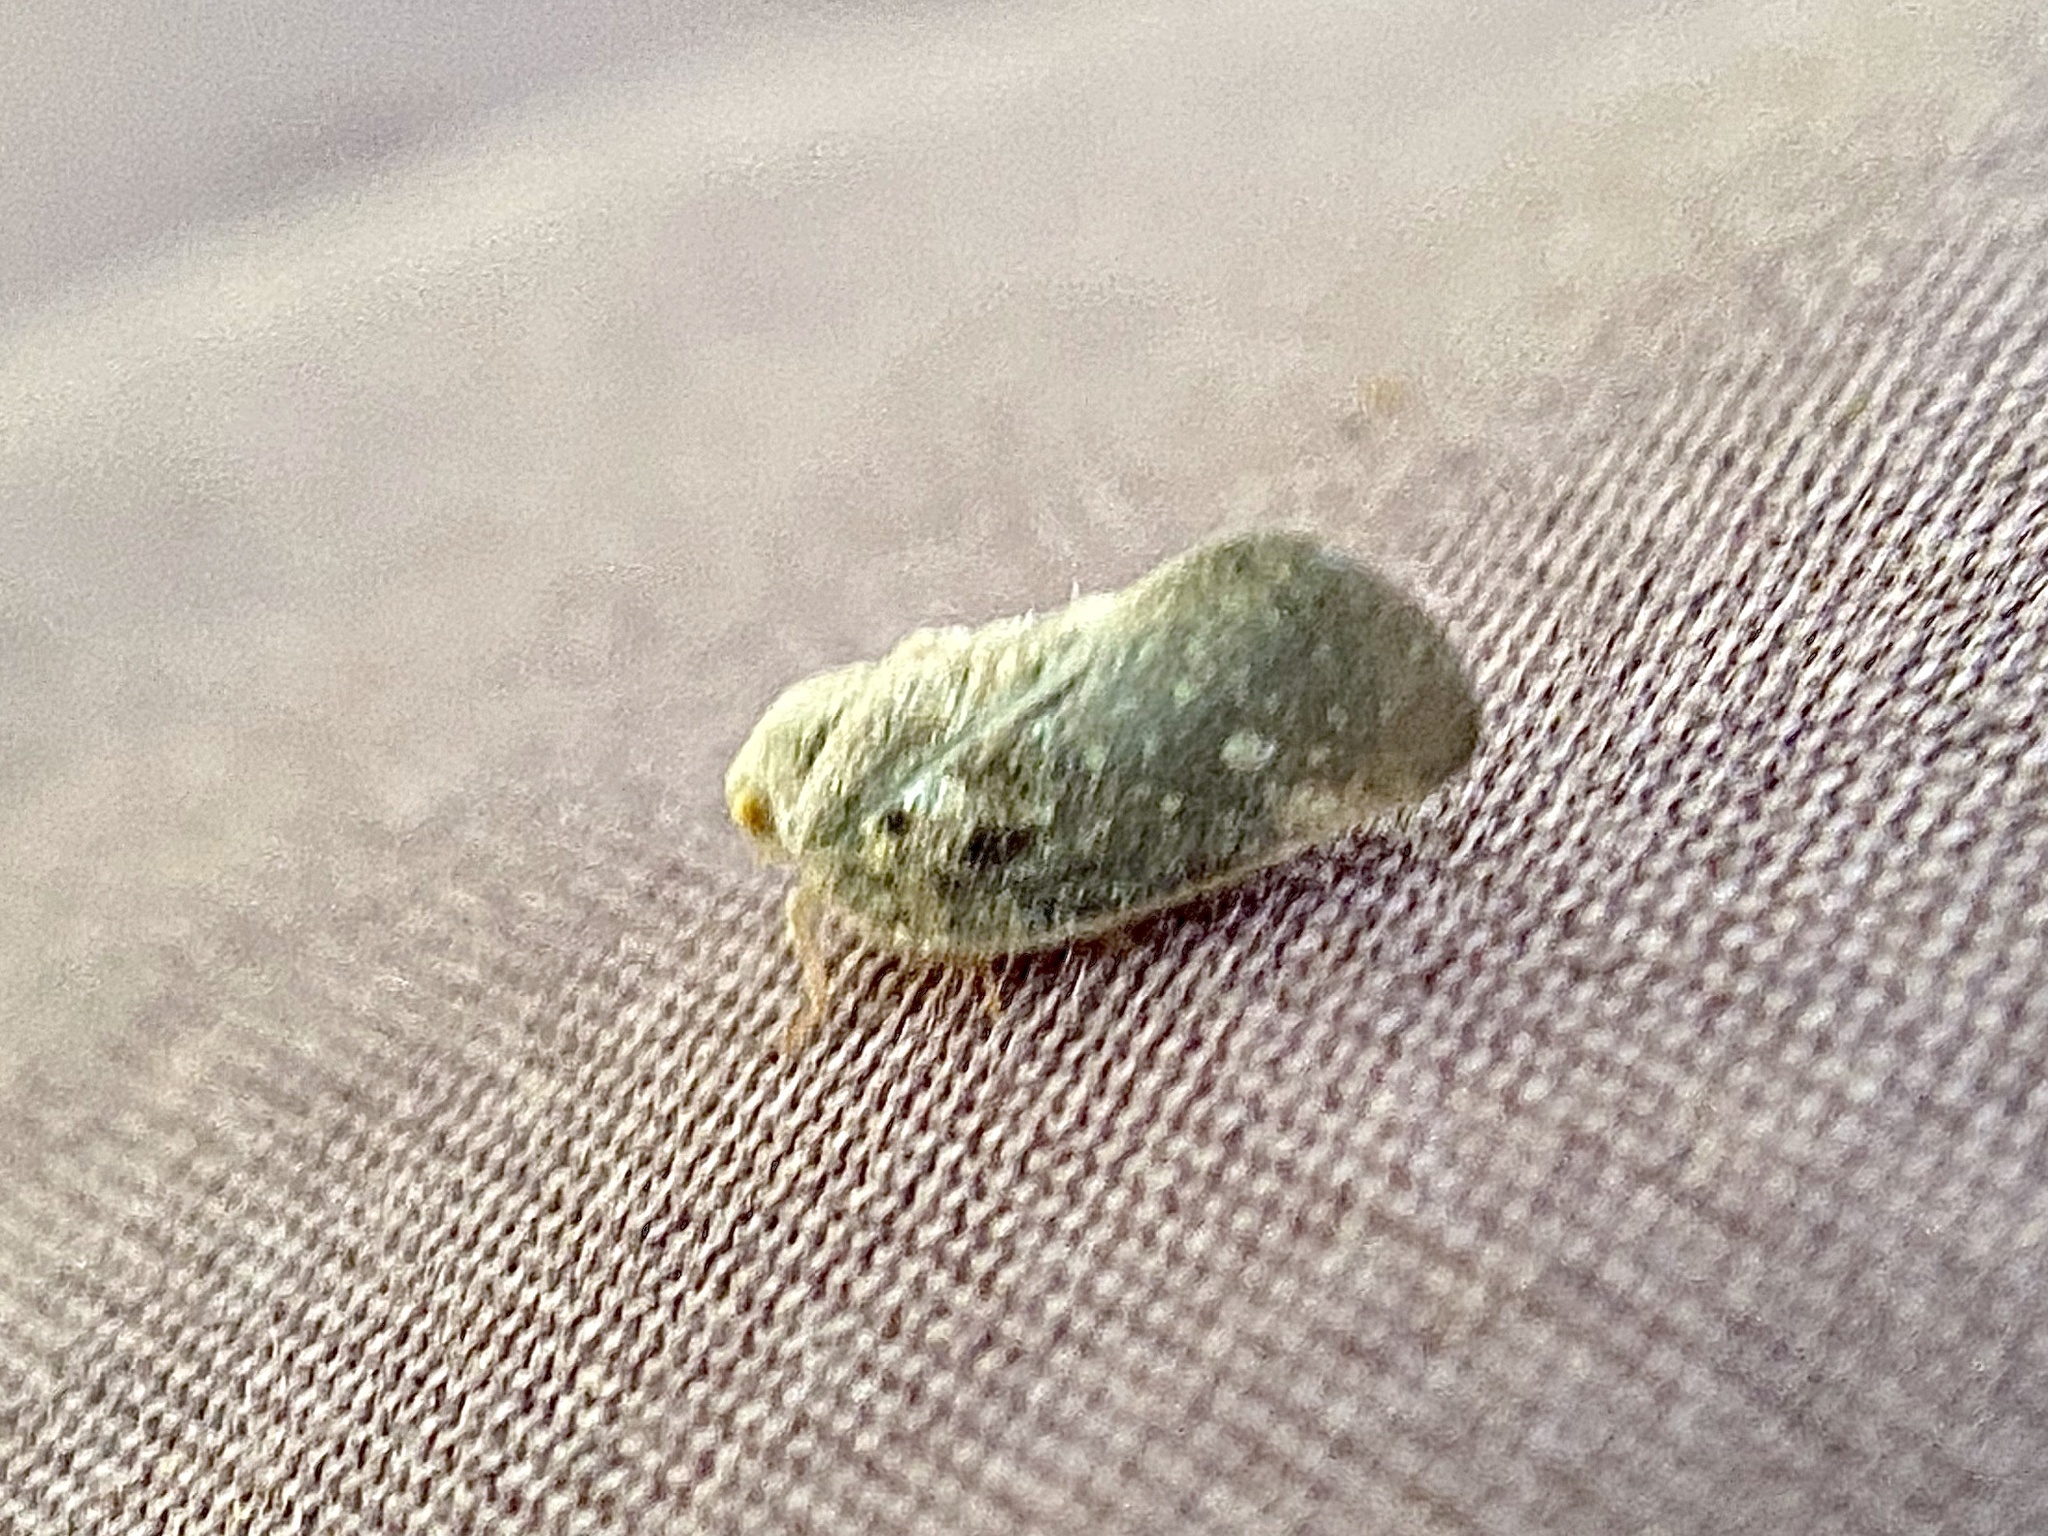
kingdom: Animalia
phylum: Arthropoda
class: Insecta
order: Hemiptera
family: Flatidae
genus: Metcalfa
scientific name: Metcalfa pruinosa
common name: Citrus flatid planthopper
